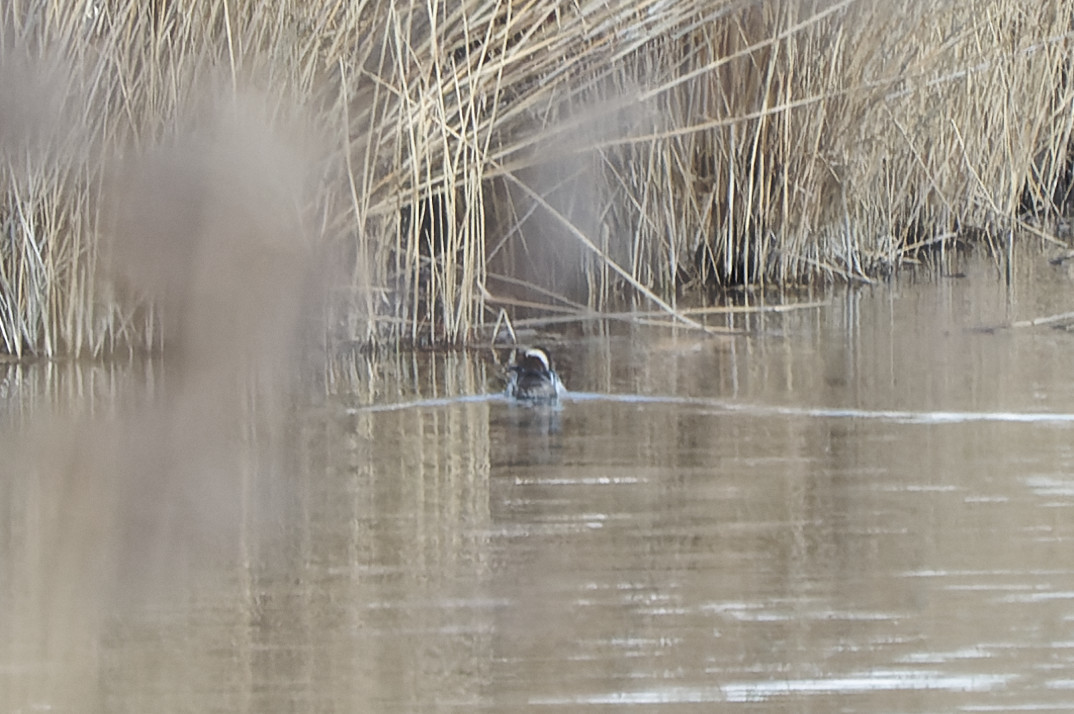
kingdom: Animalia
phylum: Chordata
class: Aves
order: Anseriformes
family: Anatidae
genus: Spatula
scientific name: Spatula querquedula
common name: Garganey
